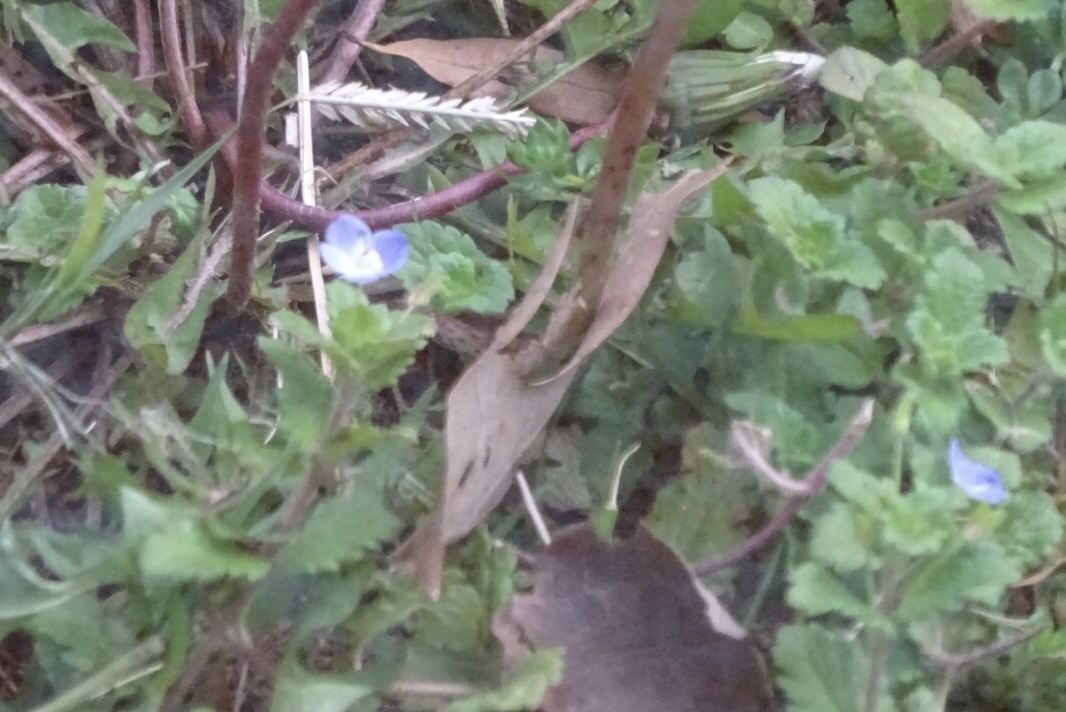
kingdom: Plantae
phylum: Tracheophyta
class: Magnoliopsida
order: Lamiales
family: Plantaginaceae
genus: Veronica
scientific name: Veronica persica
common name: Common field-speedwell
